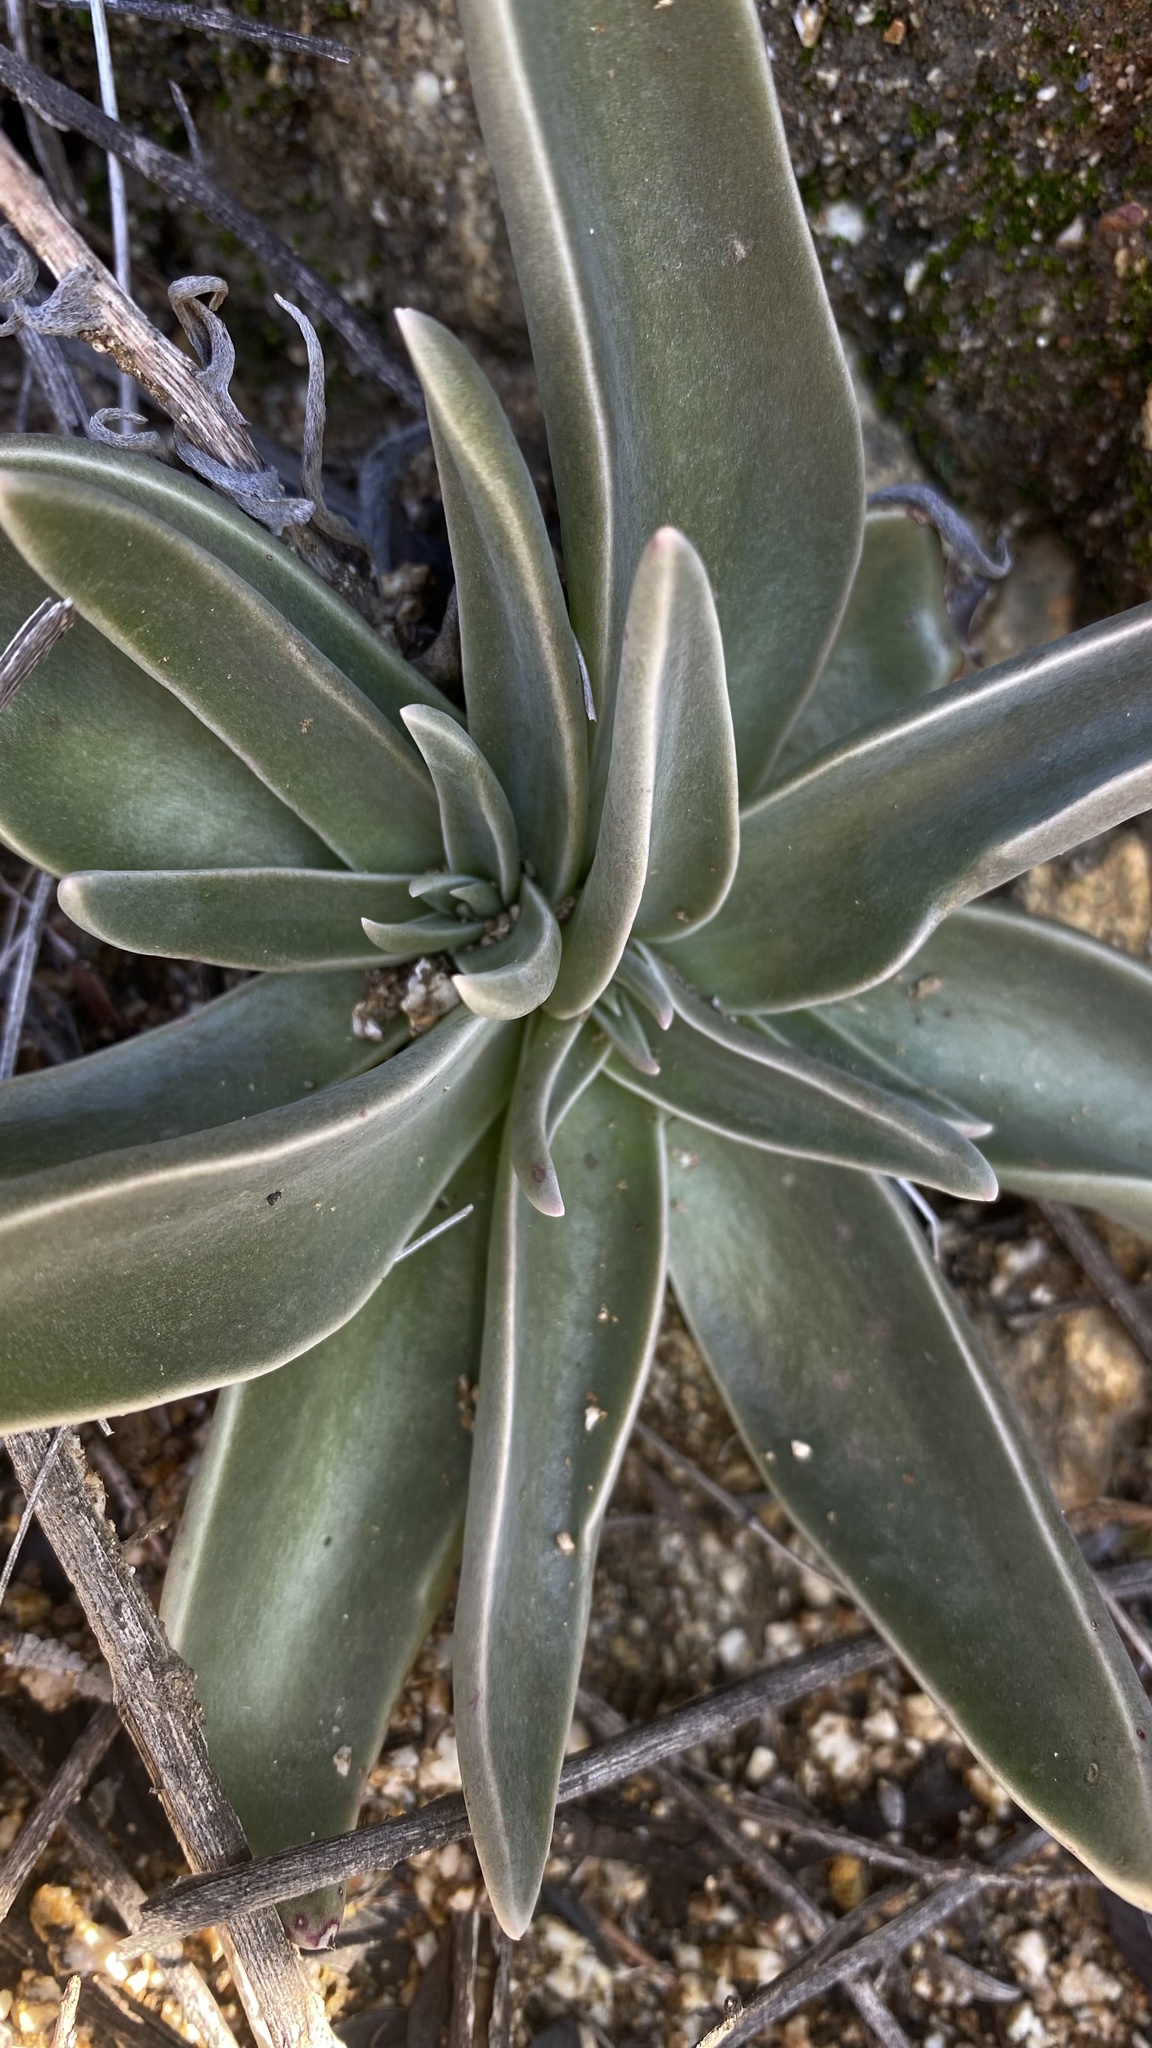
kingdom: Plantae
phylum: Tracheophyta
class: Magnoliopsida
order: Saxifragales
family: Crassulaceae
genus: Dudleya
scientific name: Dudleya lanceolata
